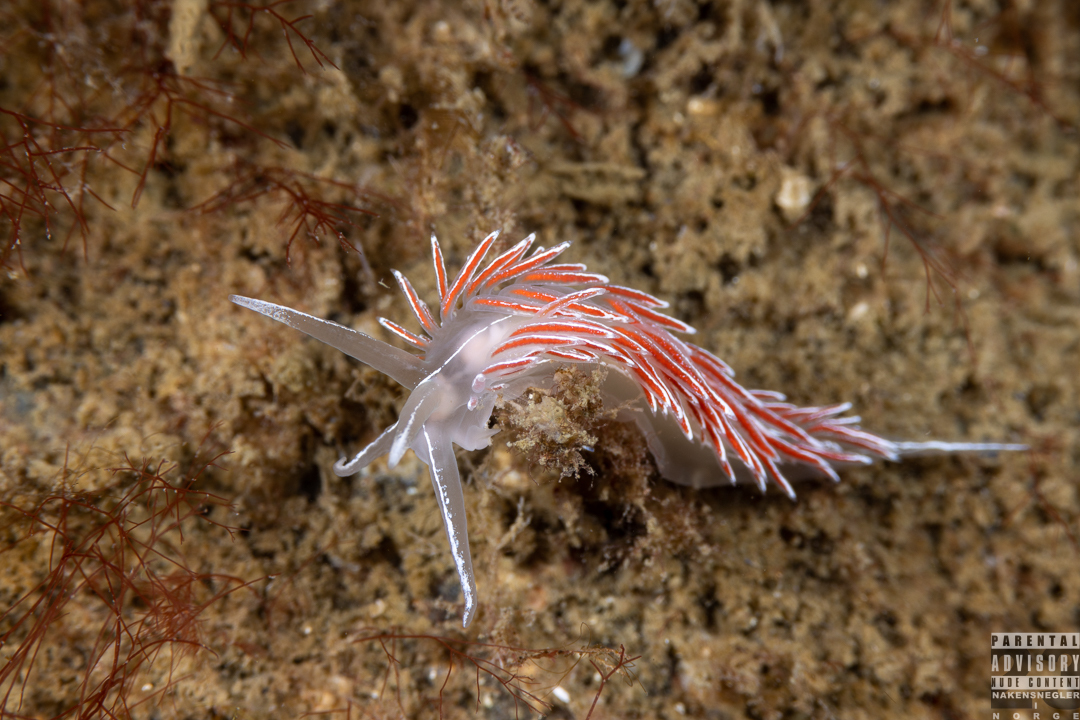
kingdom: Animalia
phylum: Mollusca
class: Gastropoda
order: Nudibranchia
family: Coryphellidae
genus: Coryphella
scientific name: Coryphella lineata
